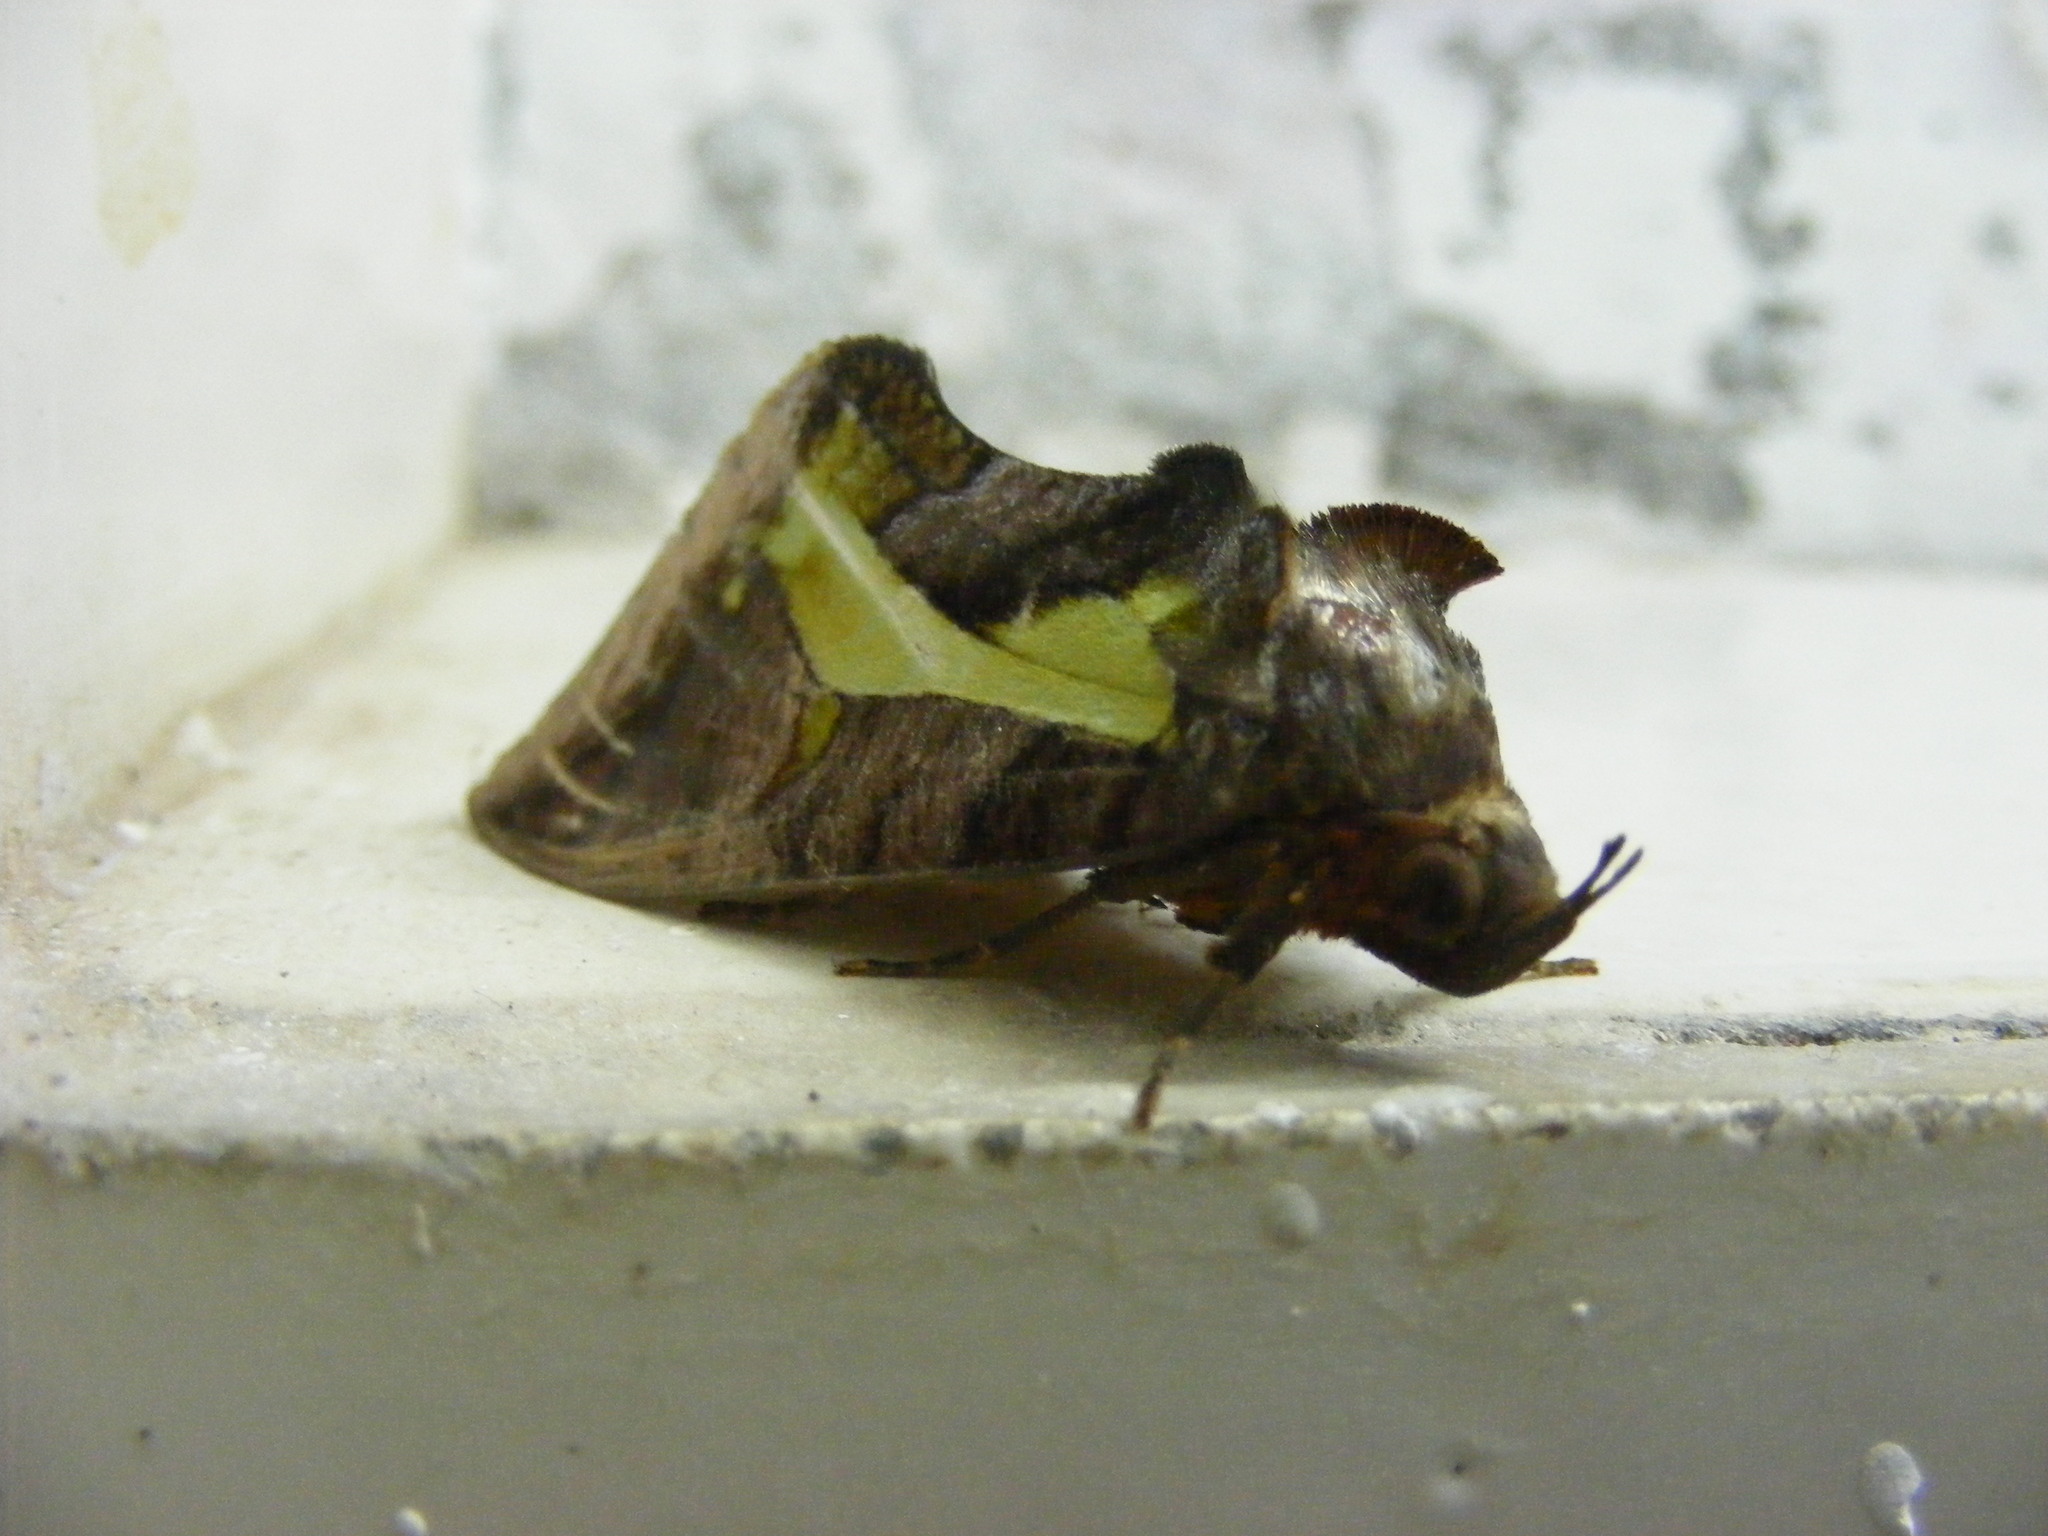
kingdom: Animalia
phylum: Arthropoda
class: Insecta
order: Lepidoptera
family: Erebidae
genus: Eudocima
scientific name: Eudocima homaena
